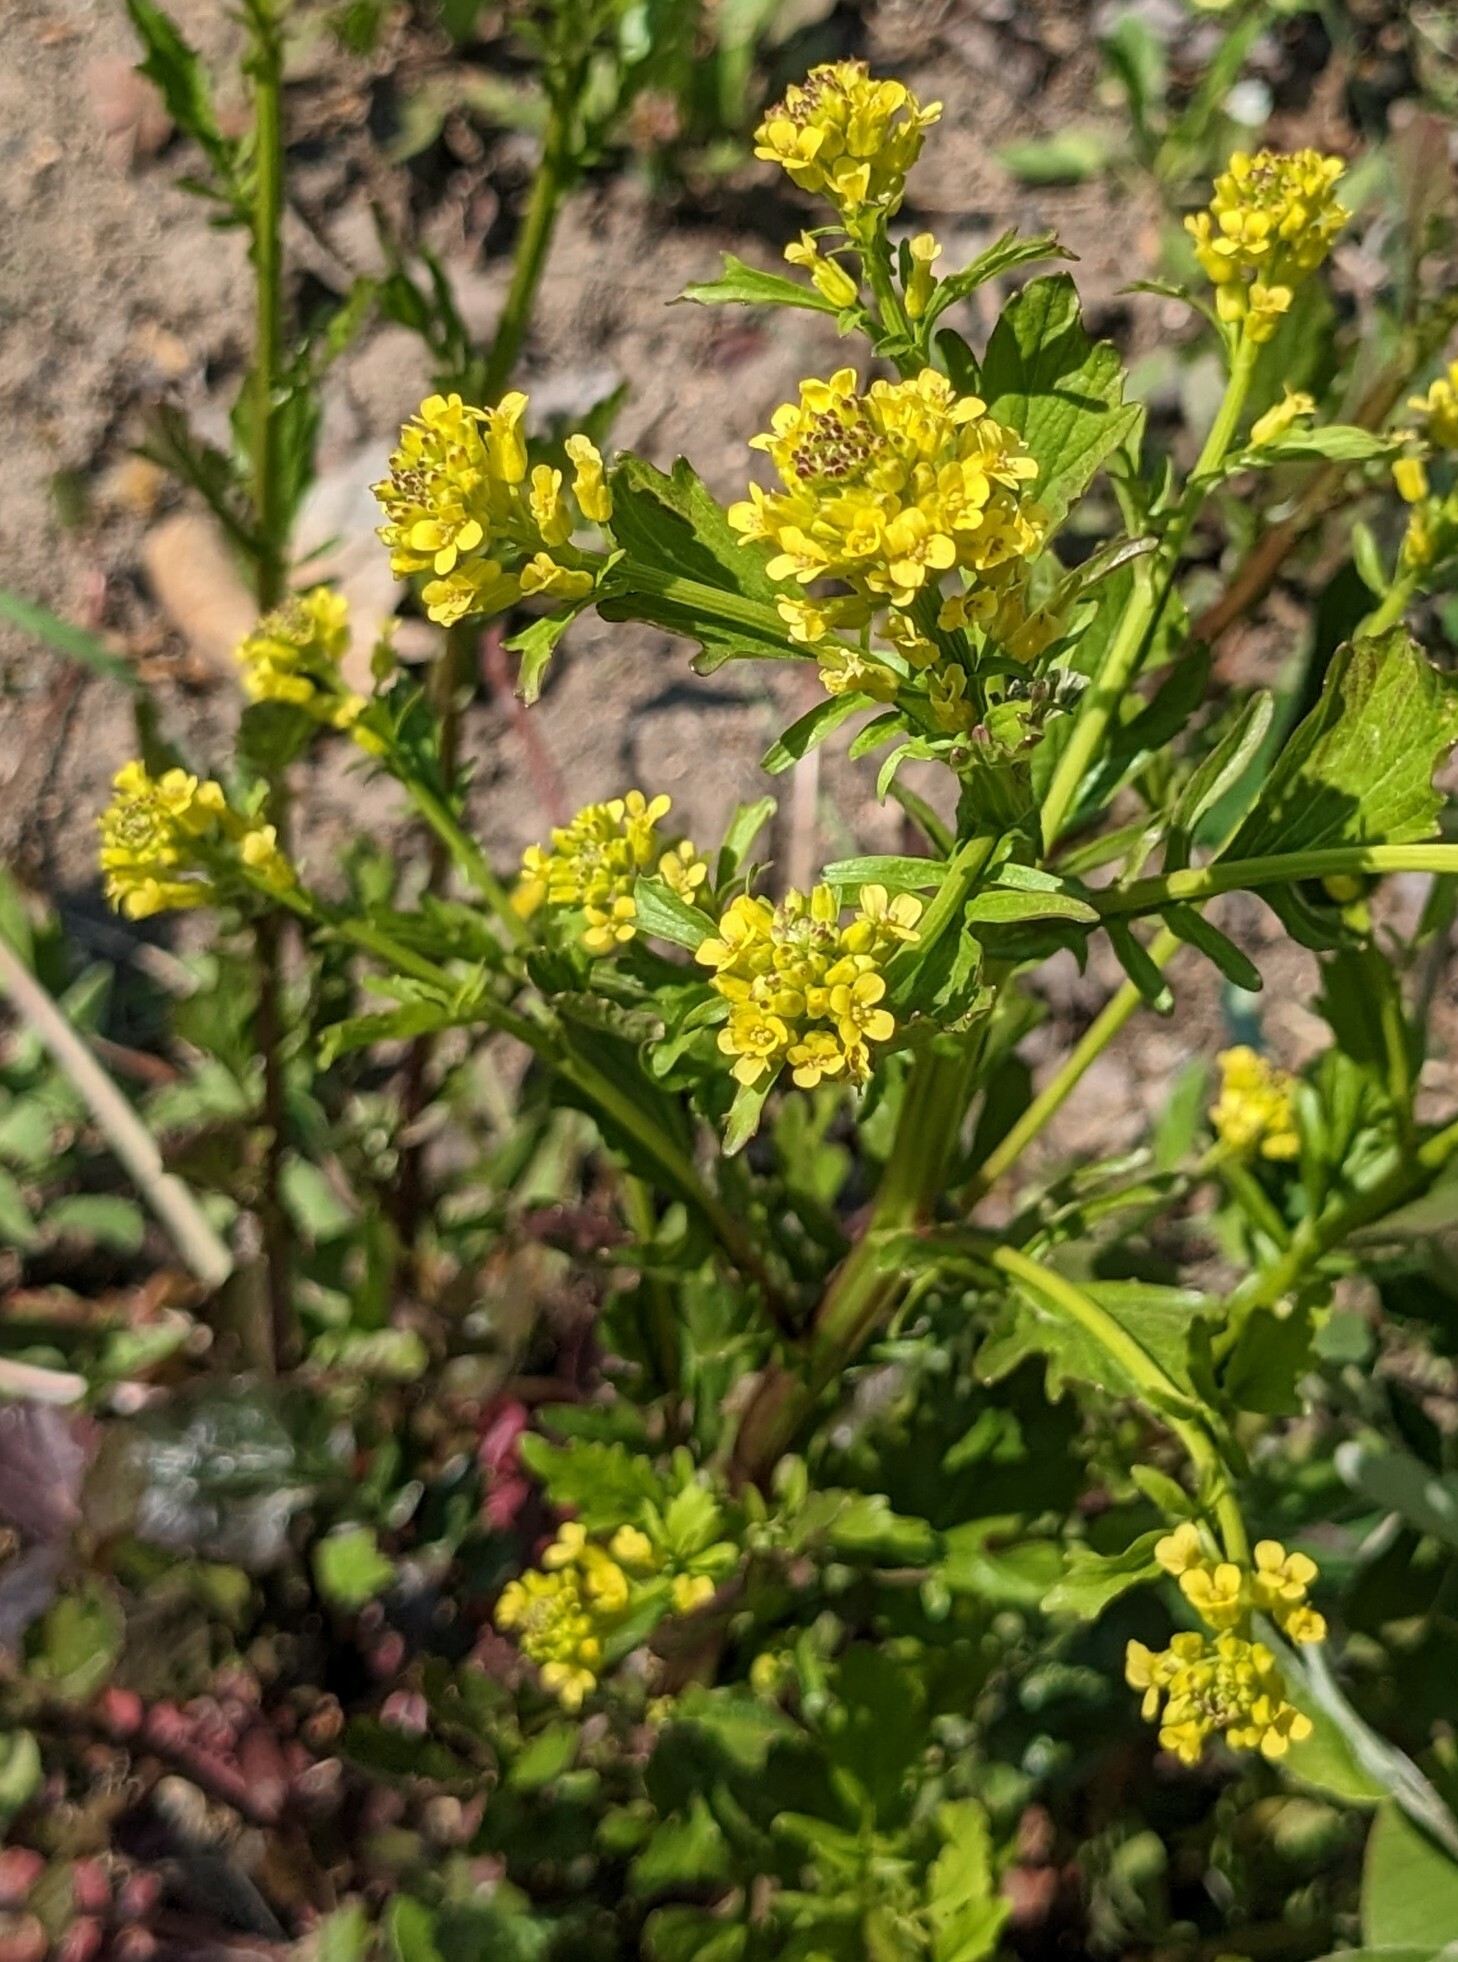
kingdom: Plantae
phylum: Tracheophyta
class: Magnoliopsida
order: Brassicales
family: Brassicaceae
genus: Barbarea
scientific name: Barbarea orthoceras
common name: American wintercress
